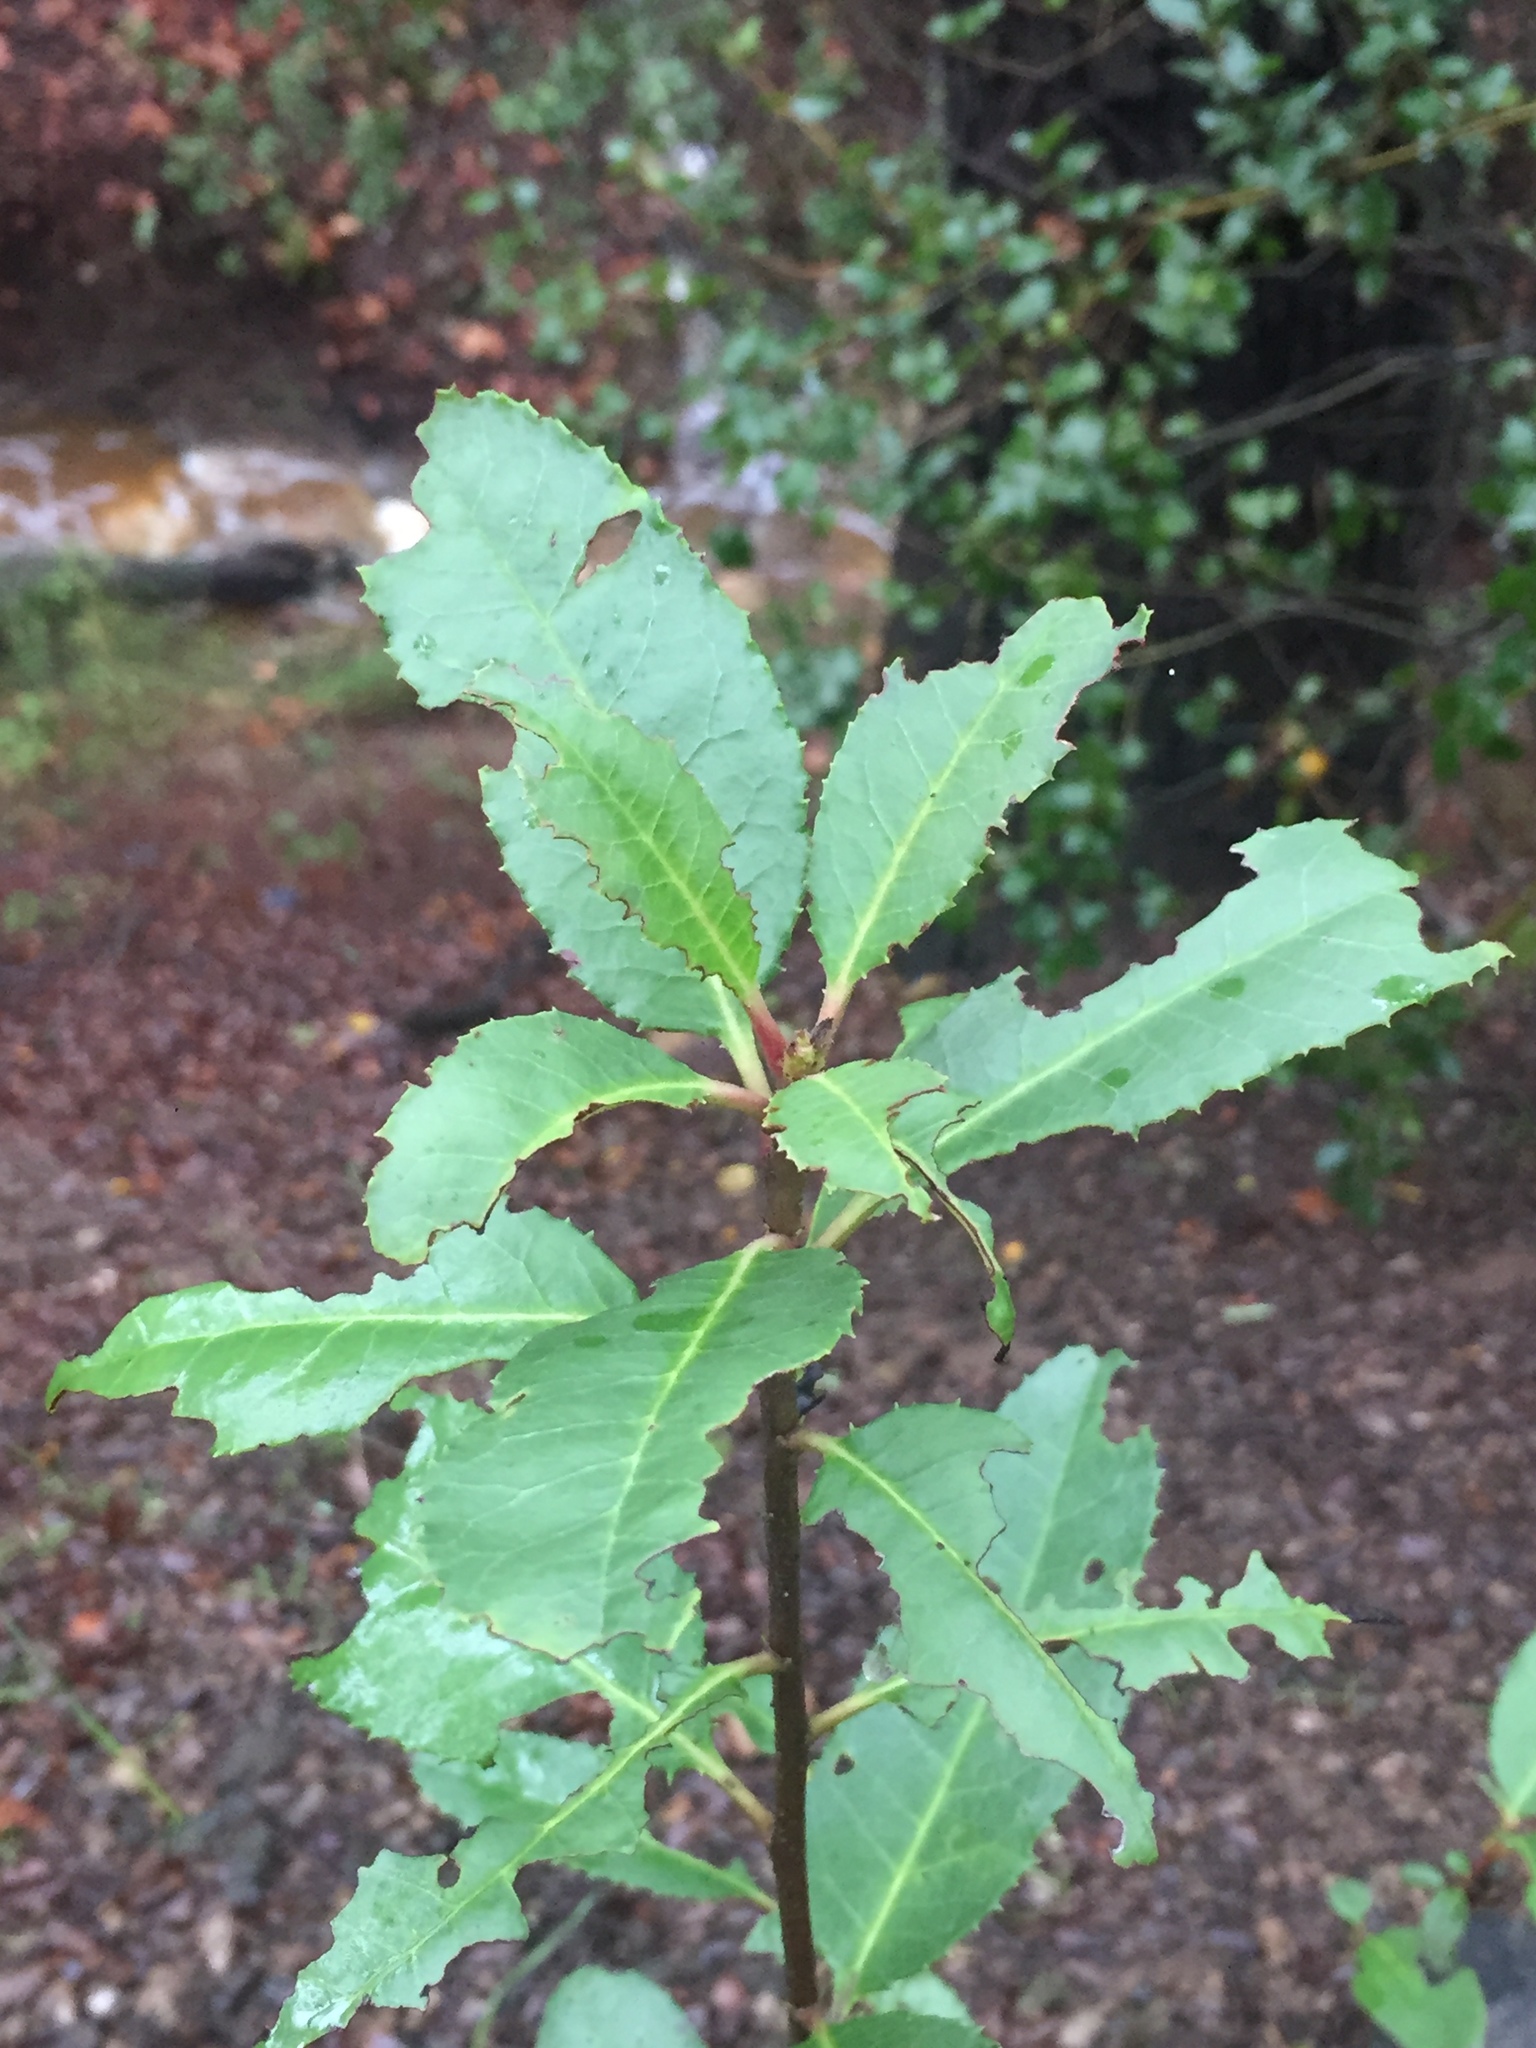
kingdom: Plantae
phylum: Tracheophyta
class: Magnoliopsida
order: Rosales
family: Rosaceae
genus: Heteromeles
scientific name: Heteromeles arbutifolia
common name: California-holly
